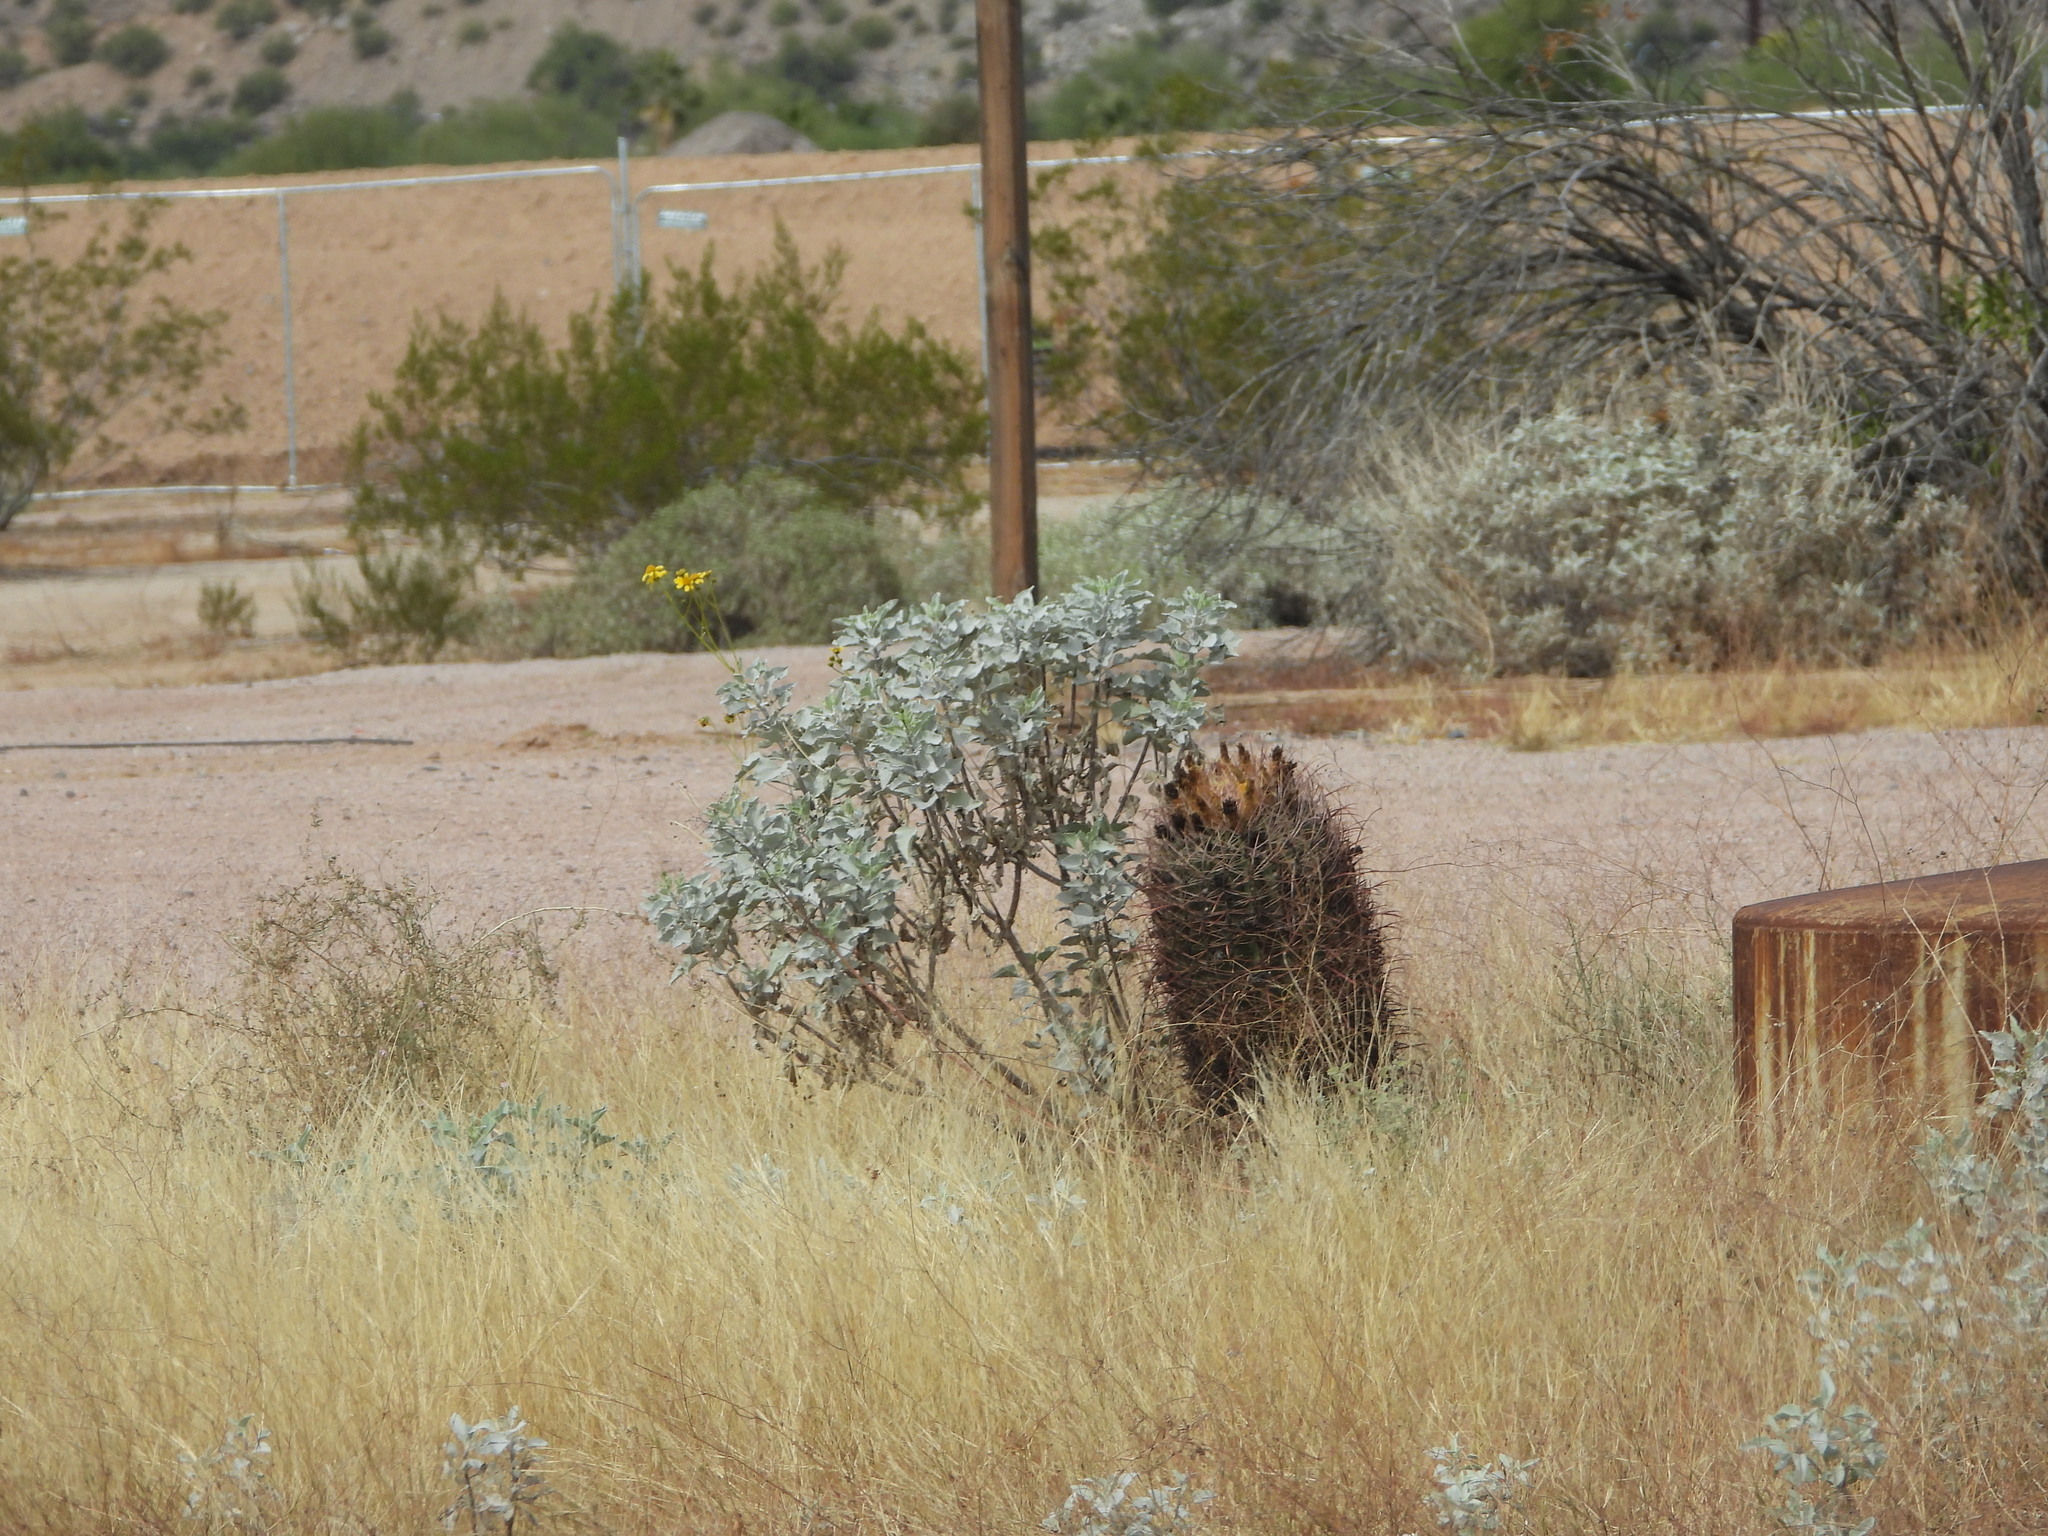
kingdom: Plantae
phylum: Tracheophyta
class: Magnoliopsida
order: Caryophyllales
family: Cactaceae
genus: Ferocactus
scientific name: Ferocactus cylindraceus
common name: California barrel cactus
